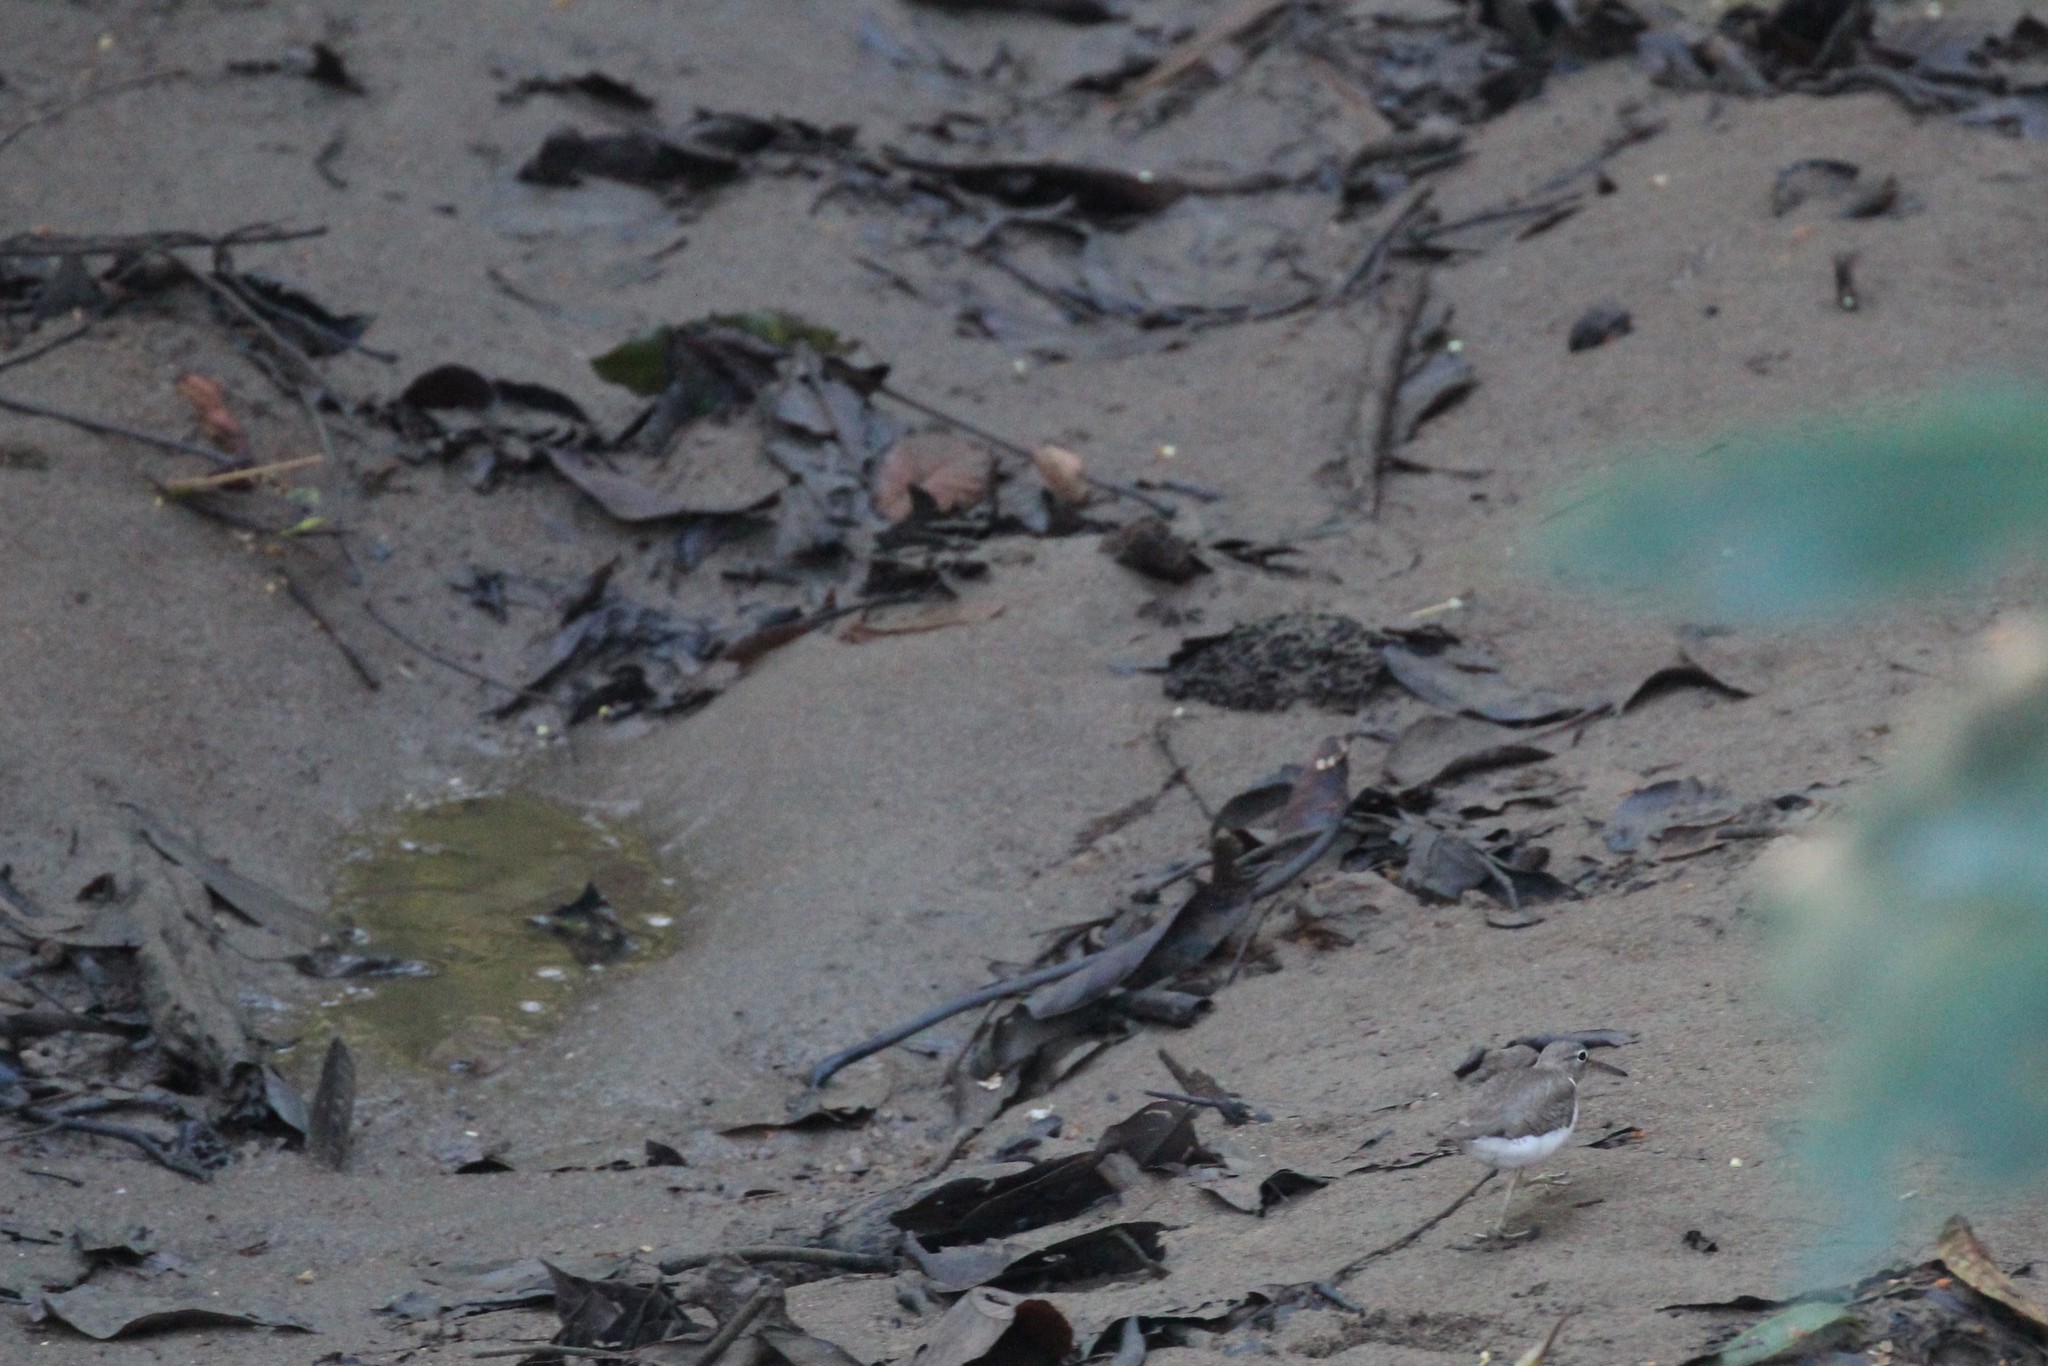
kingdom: Animalia
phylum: Chordata
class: Aves
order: Charadriiformes
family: Scolopacidae
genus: Actitis
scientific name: Actitis macularius
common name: Spotted sandpiper
